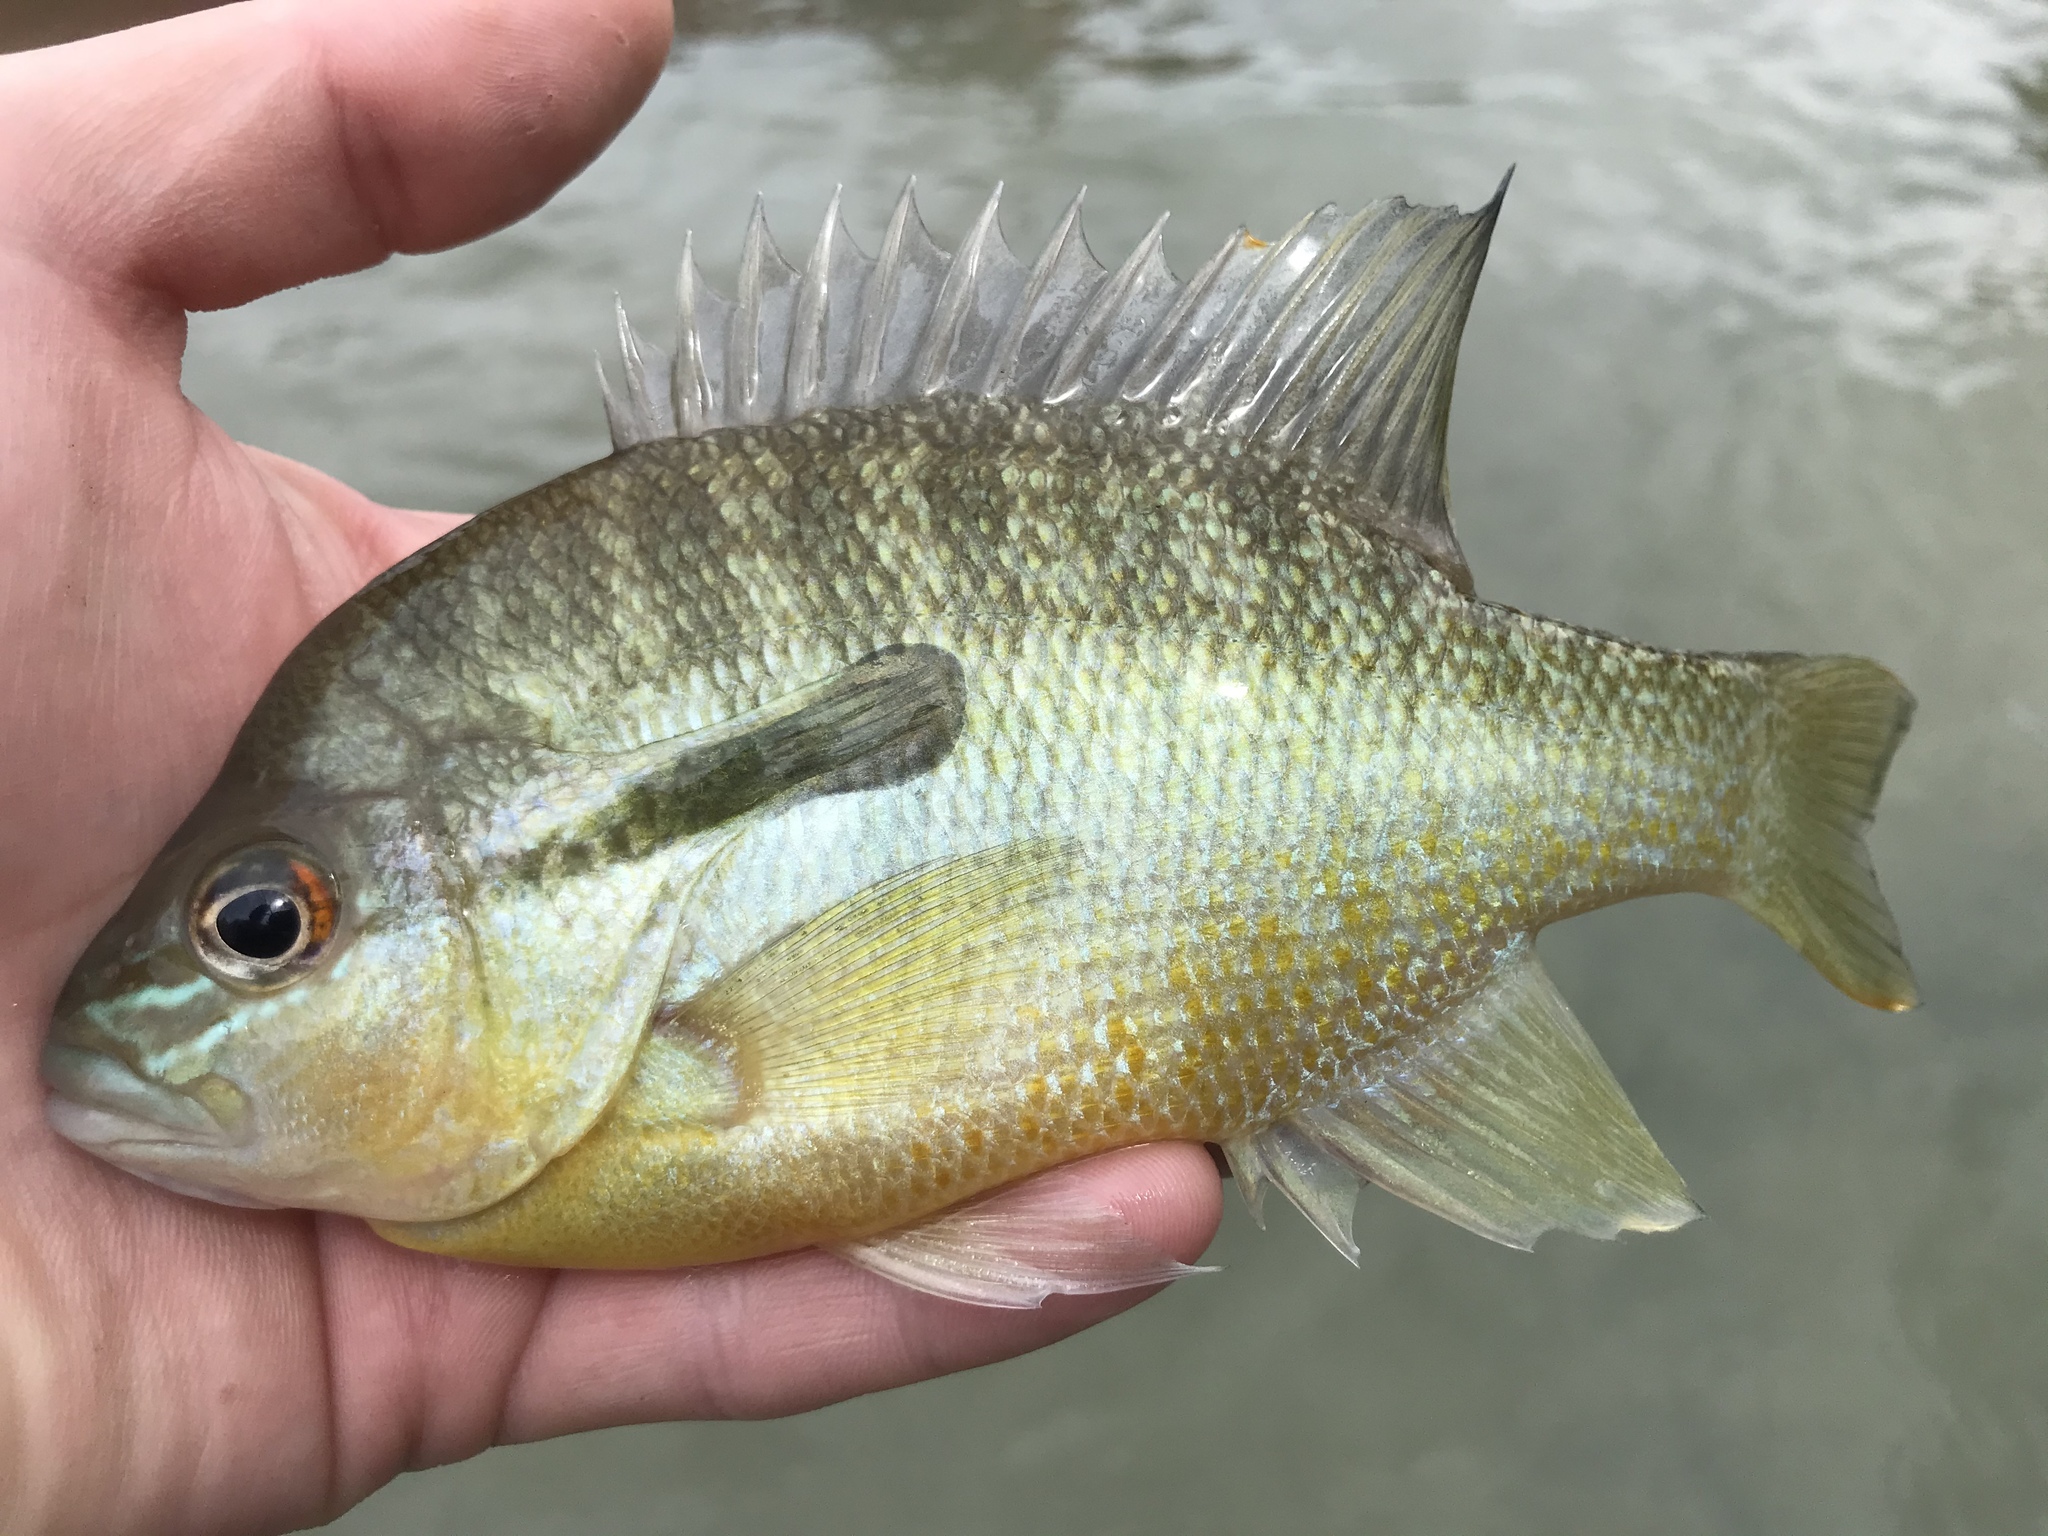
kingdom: Animalia
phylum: Chordata
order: Perciformes
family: Centrarchidae
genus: Lepomis
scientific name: Lepomis auritus
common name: Redbreast sunfish
